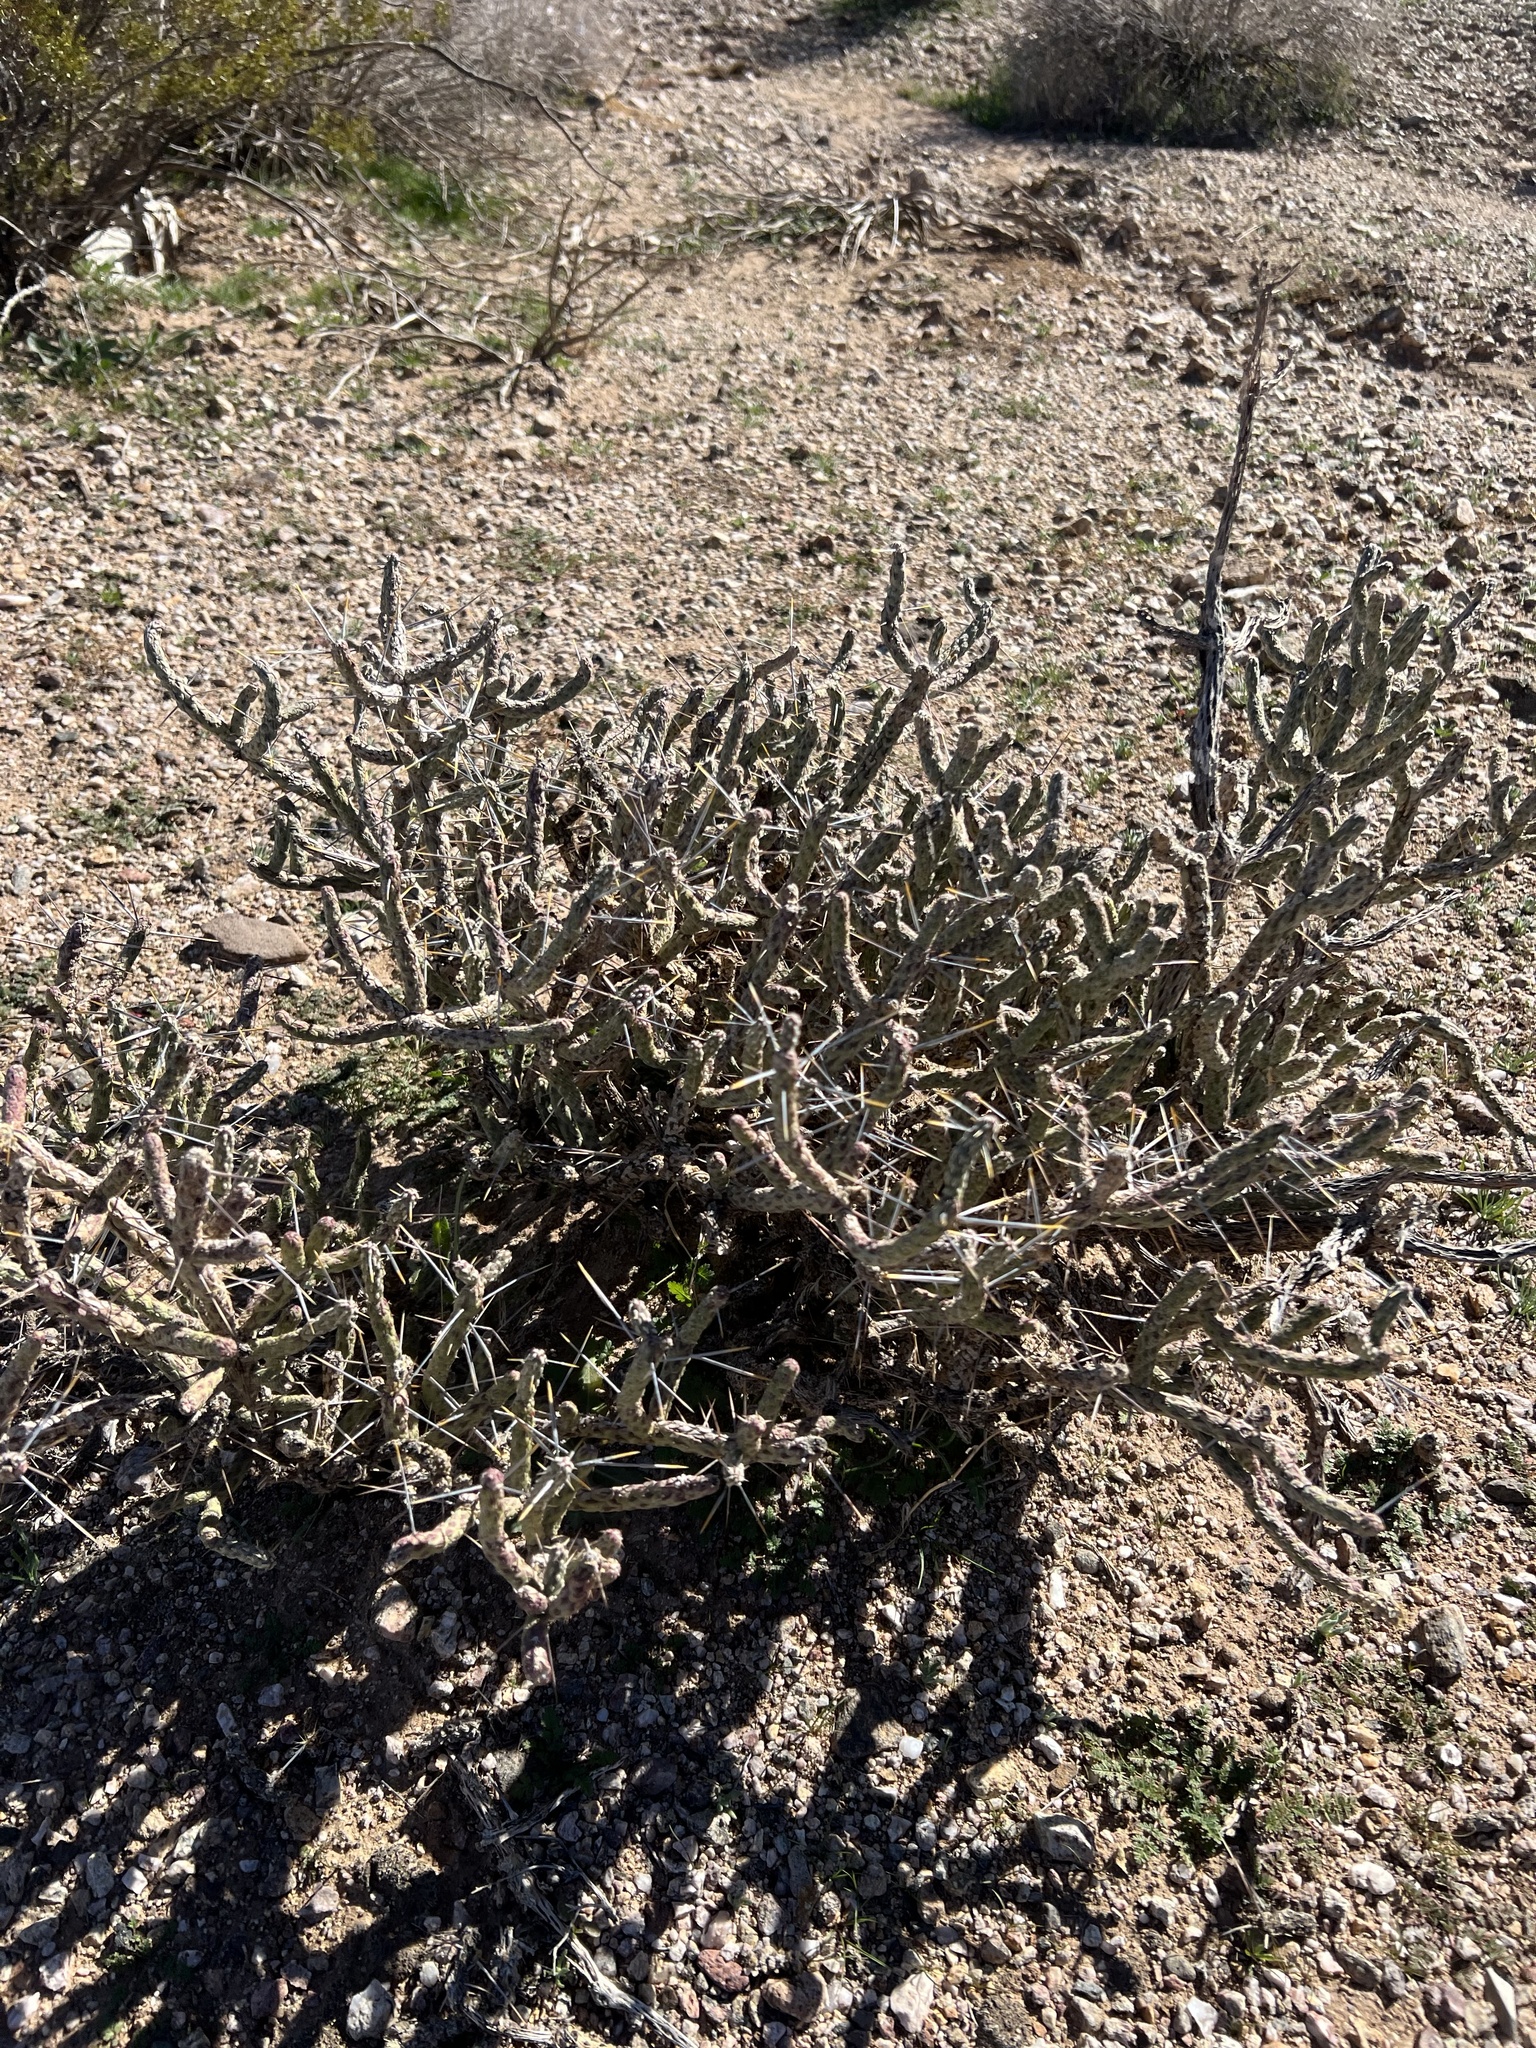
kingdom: Plantae
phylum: Tracheophyta
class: Magnoliopsida
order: Caryophyllales
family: Cactaceae
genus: Cylindropuntia
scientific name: Cylindropuntia ramosissima
